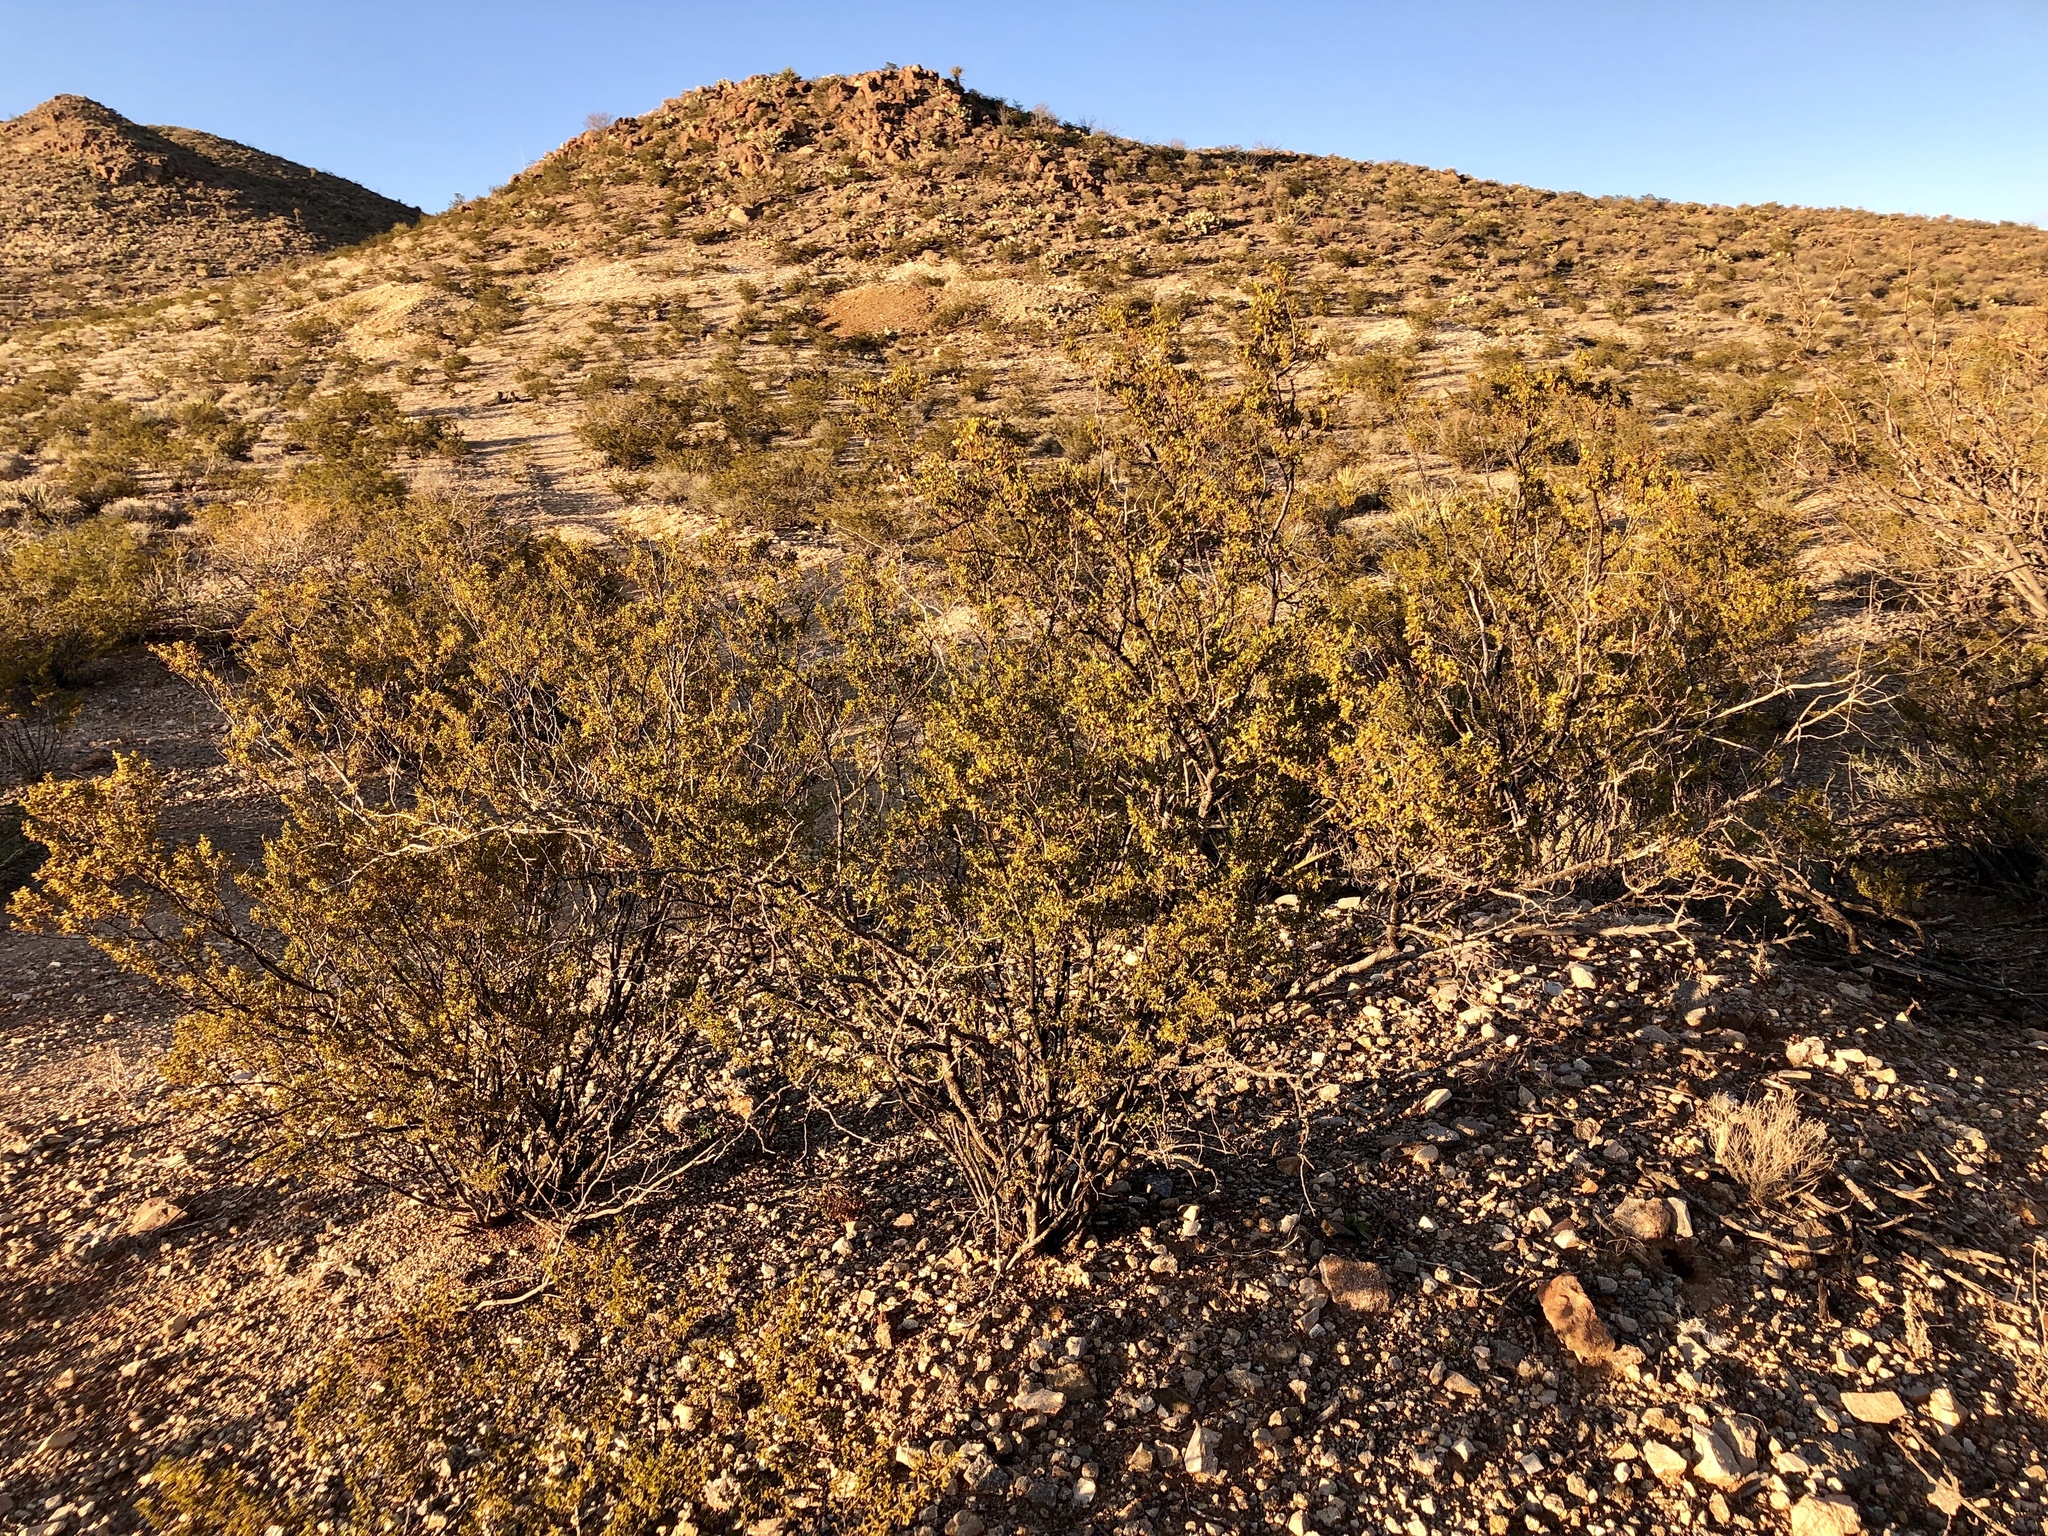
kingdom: Plantae
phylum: Tracheophyta
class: Magnoliopsida
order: Zygophyllales
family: Zygophyllaceae
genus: Larrea
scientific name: Larrea tridentata
